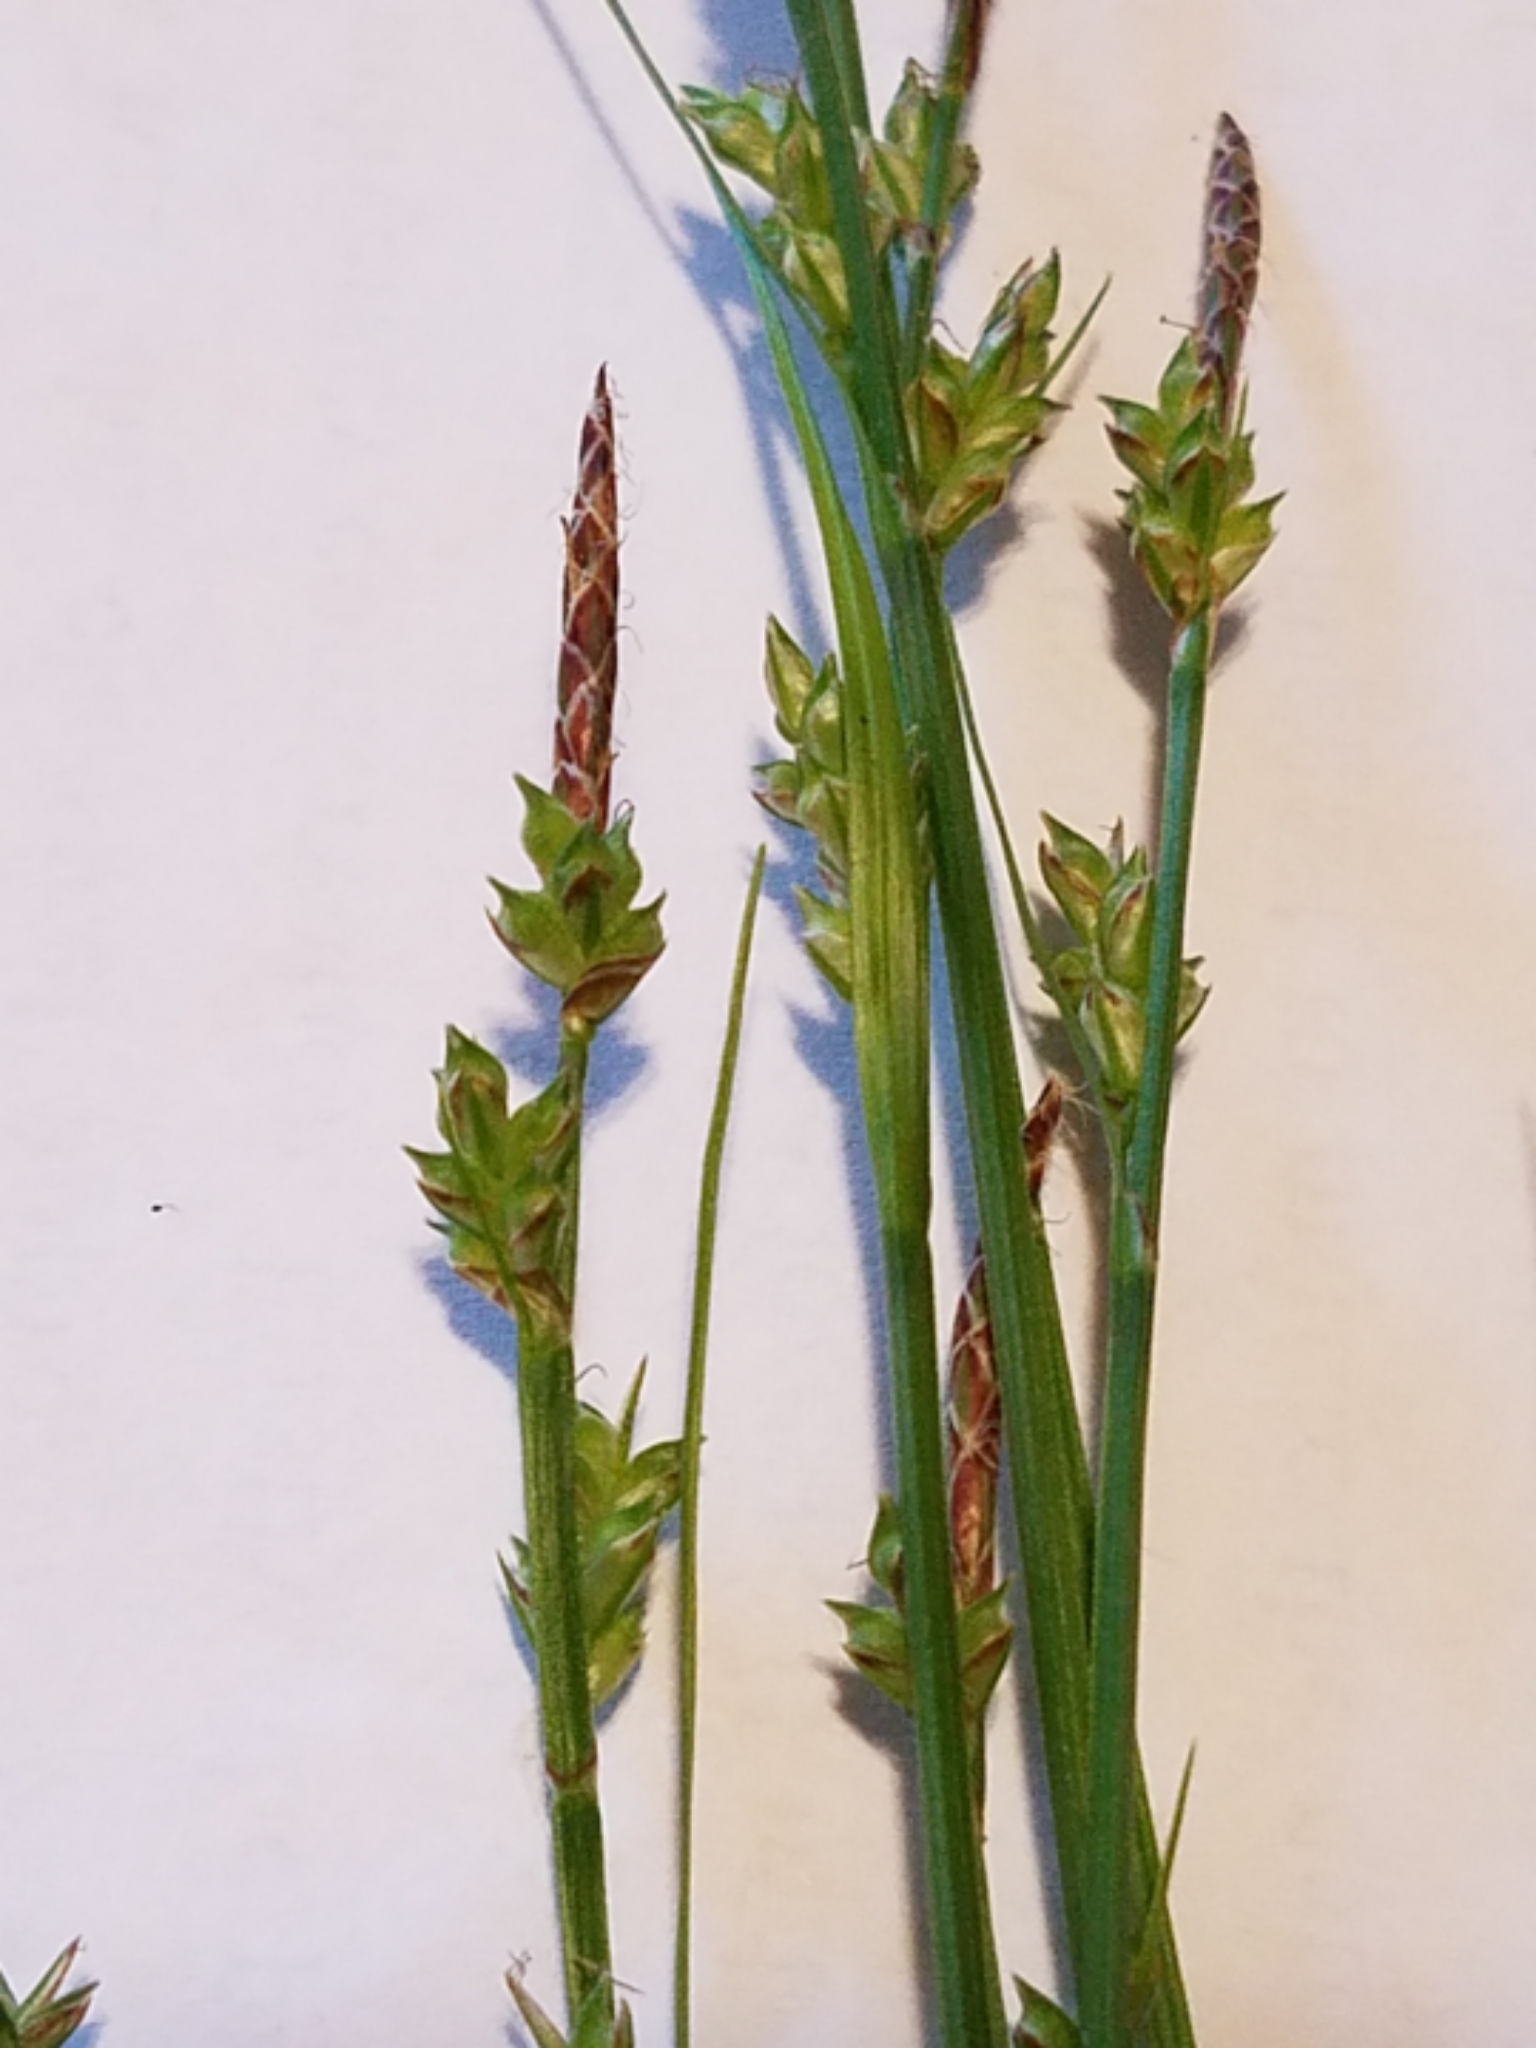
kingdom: Plantae
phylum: Tracheophyta
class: Liliopsida
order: Poales
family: Cyperaceae
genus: Carex
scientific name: Carex communis
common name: Colonial oak sedge
